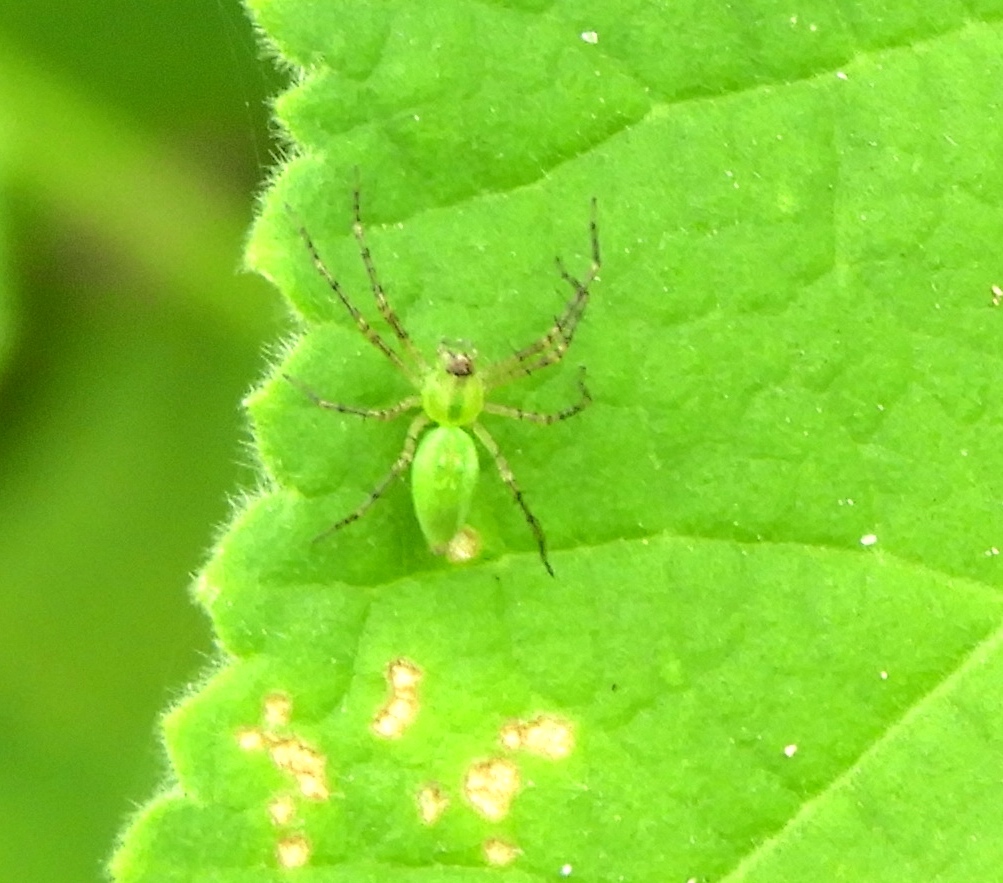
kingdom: Animalia
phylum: Arthropoda
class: Arachnida
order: Araneae
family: Oxyopidae
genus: Peucetia
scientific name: Peucetia
